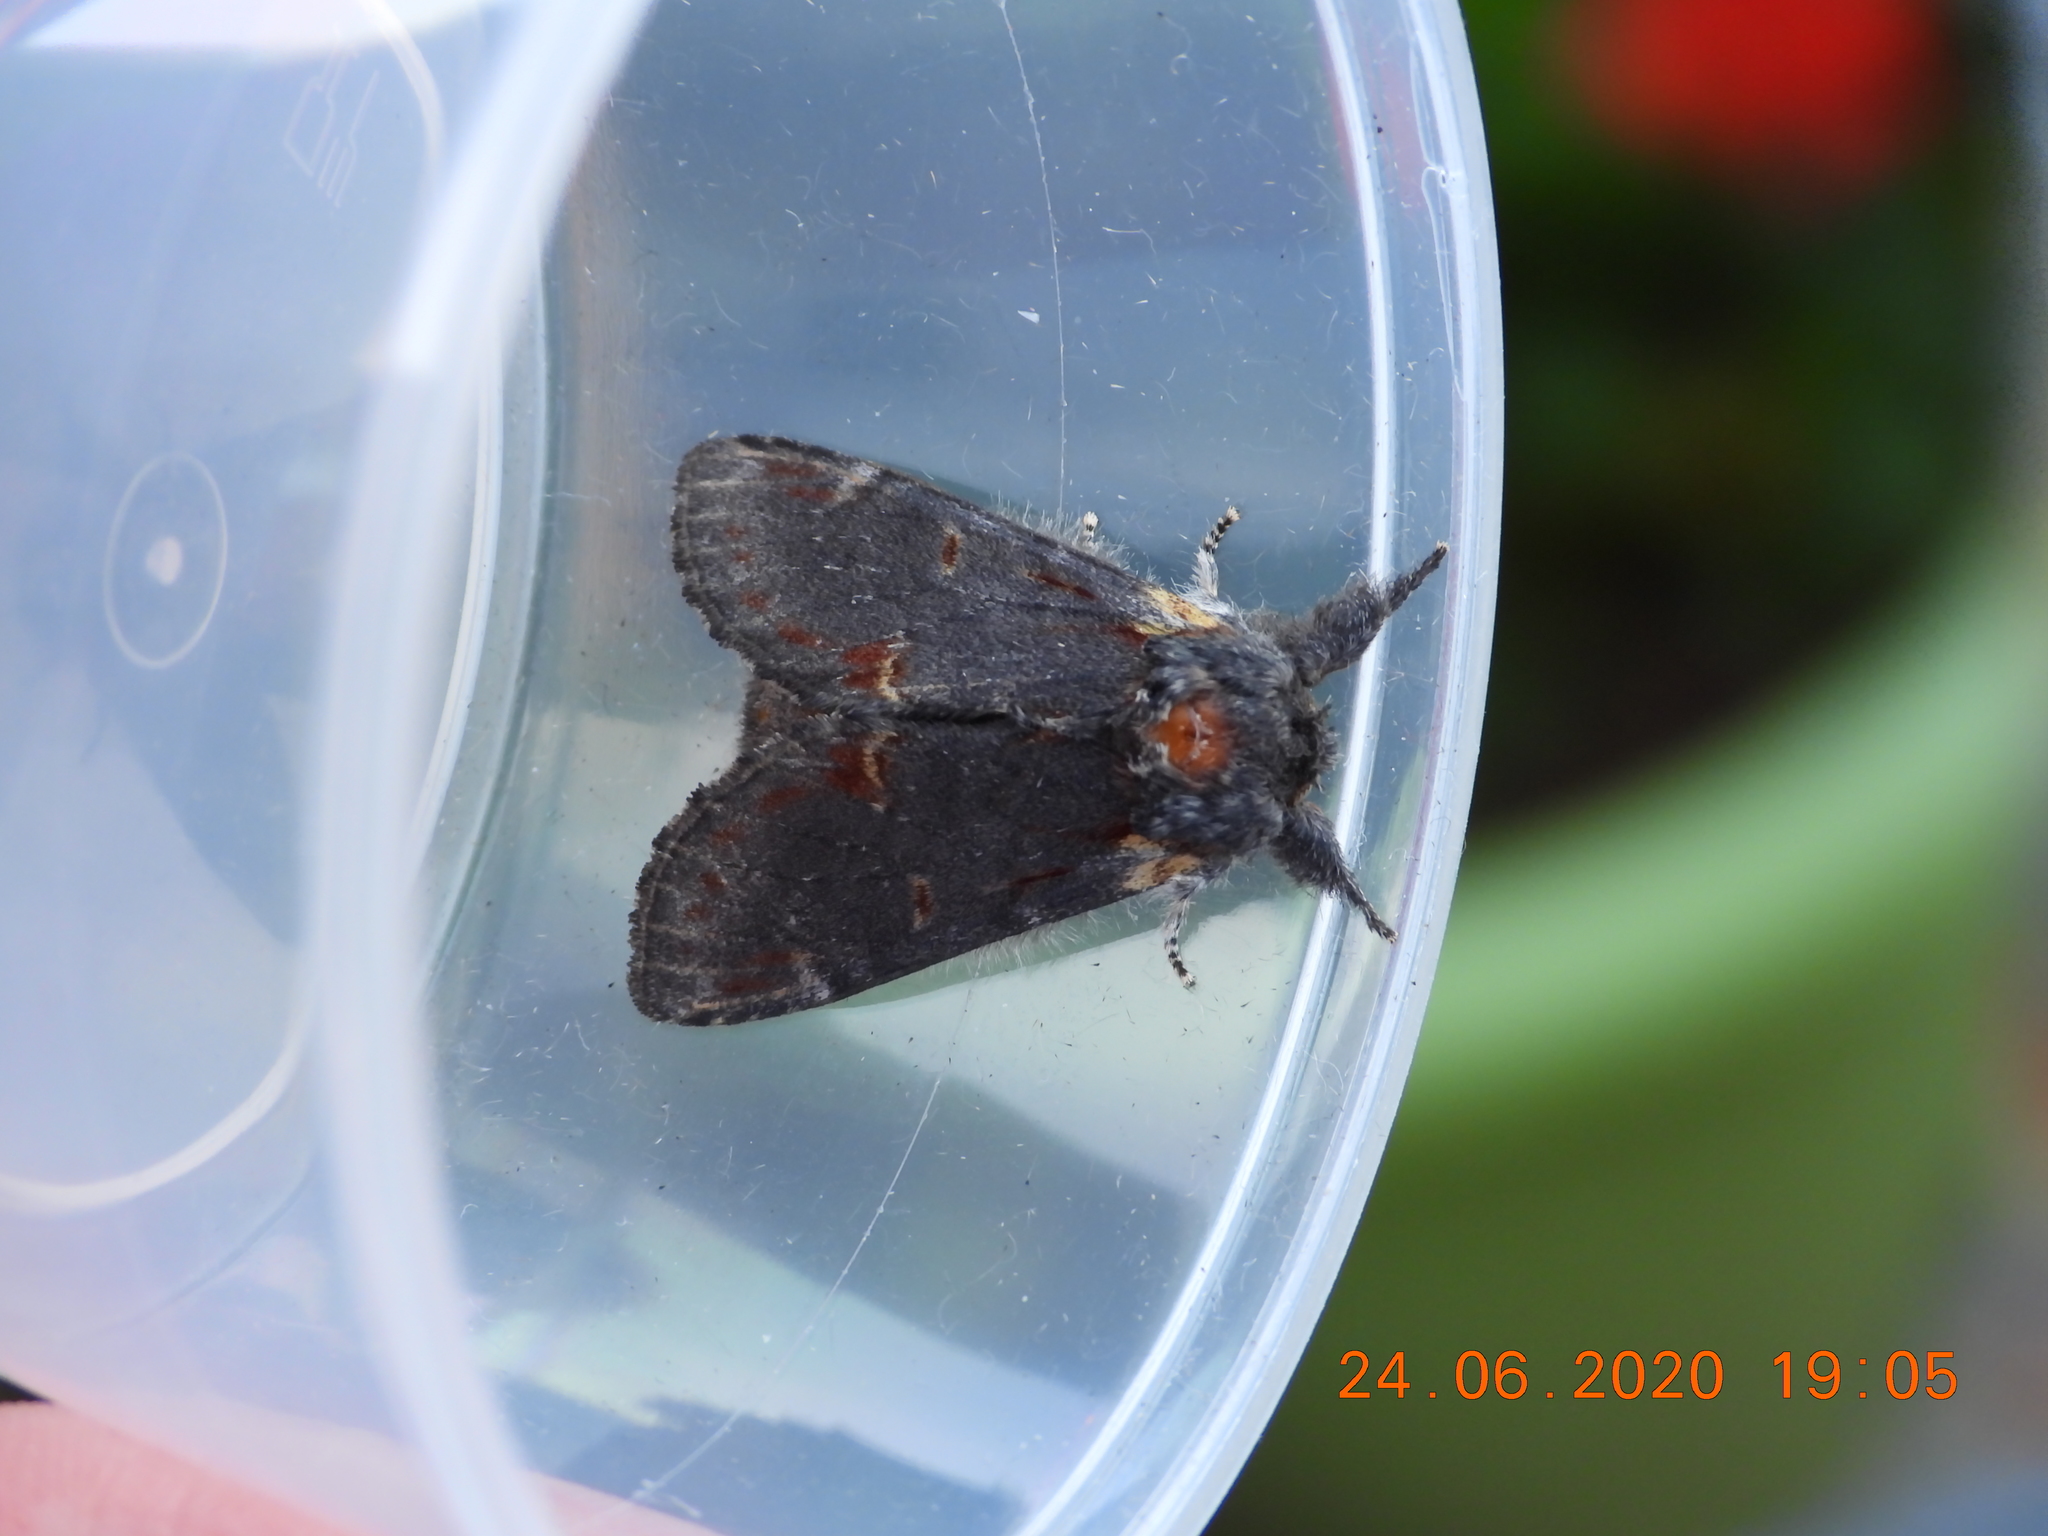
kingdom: Animalia
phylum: Arthropoda
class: Insecta
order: Lepidoptera
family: Notodontidae
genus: Notodonta
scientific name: Notodonta dromedarius
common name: Iron prominent
